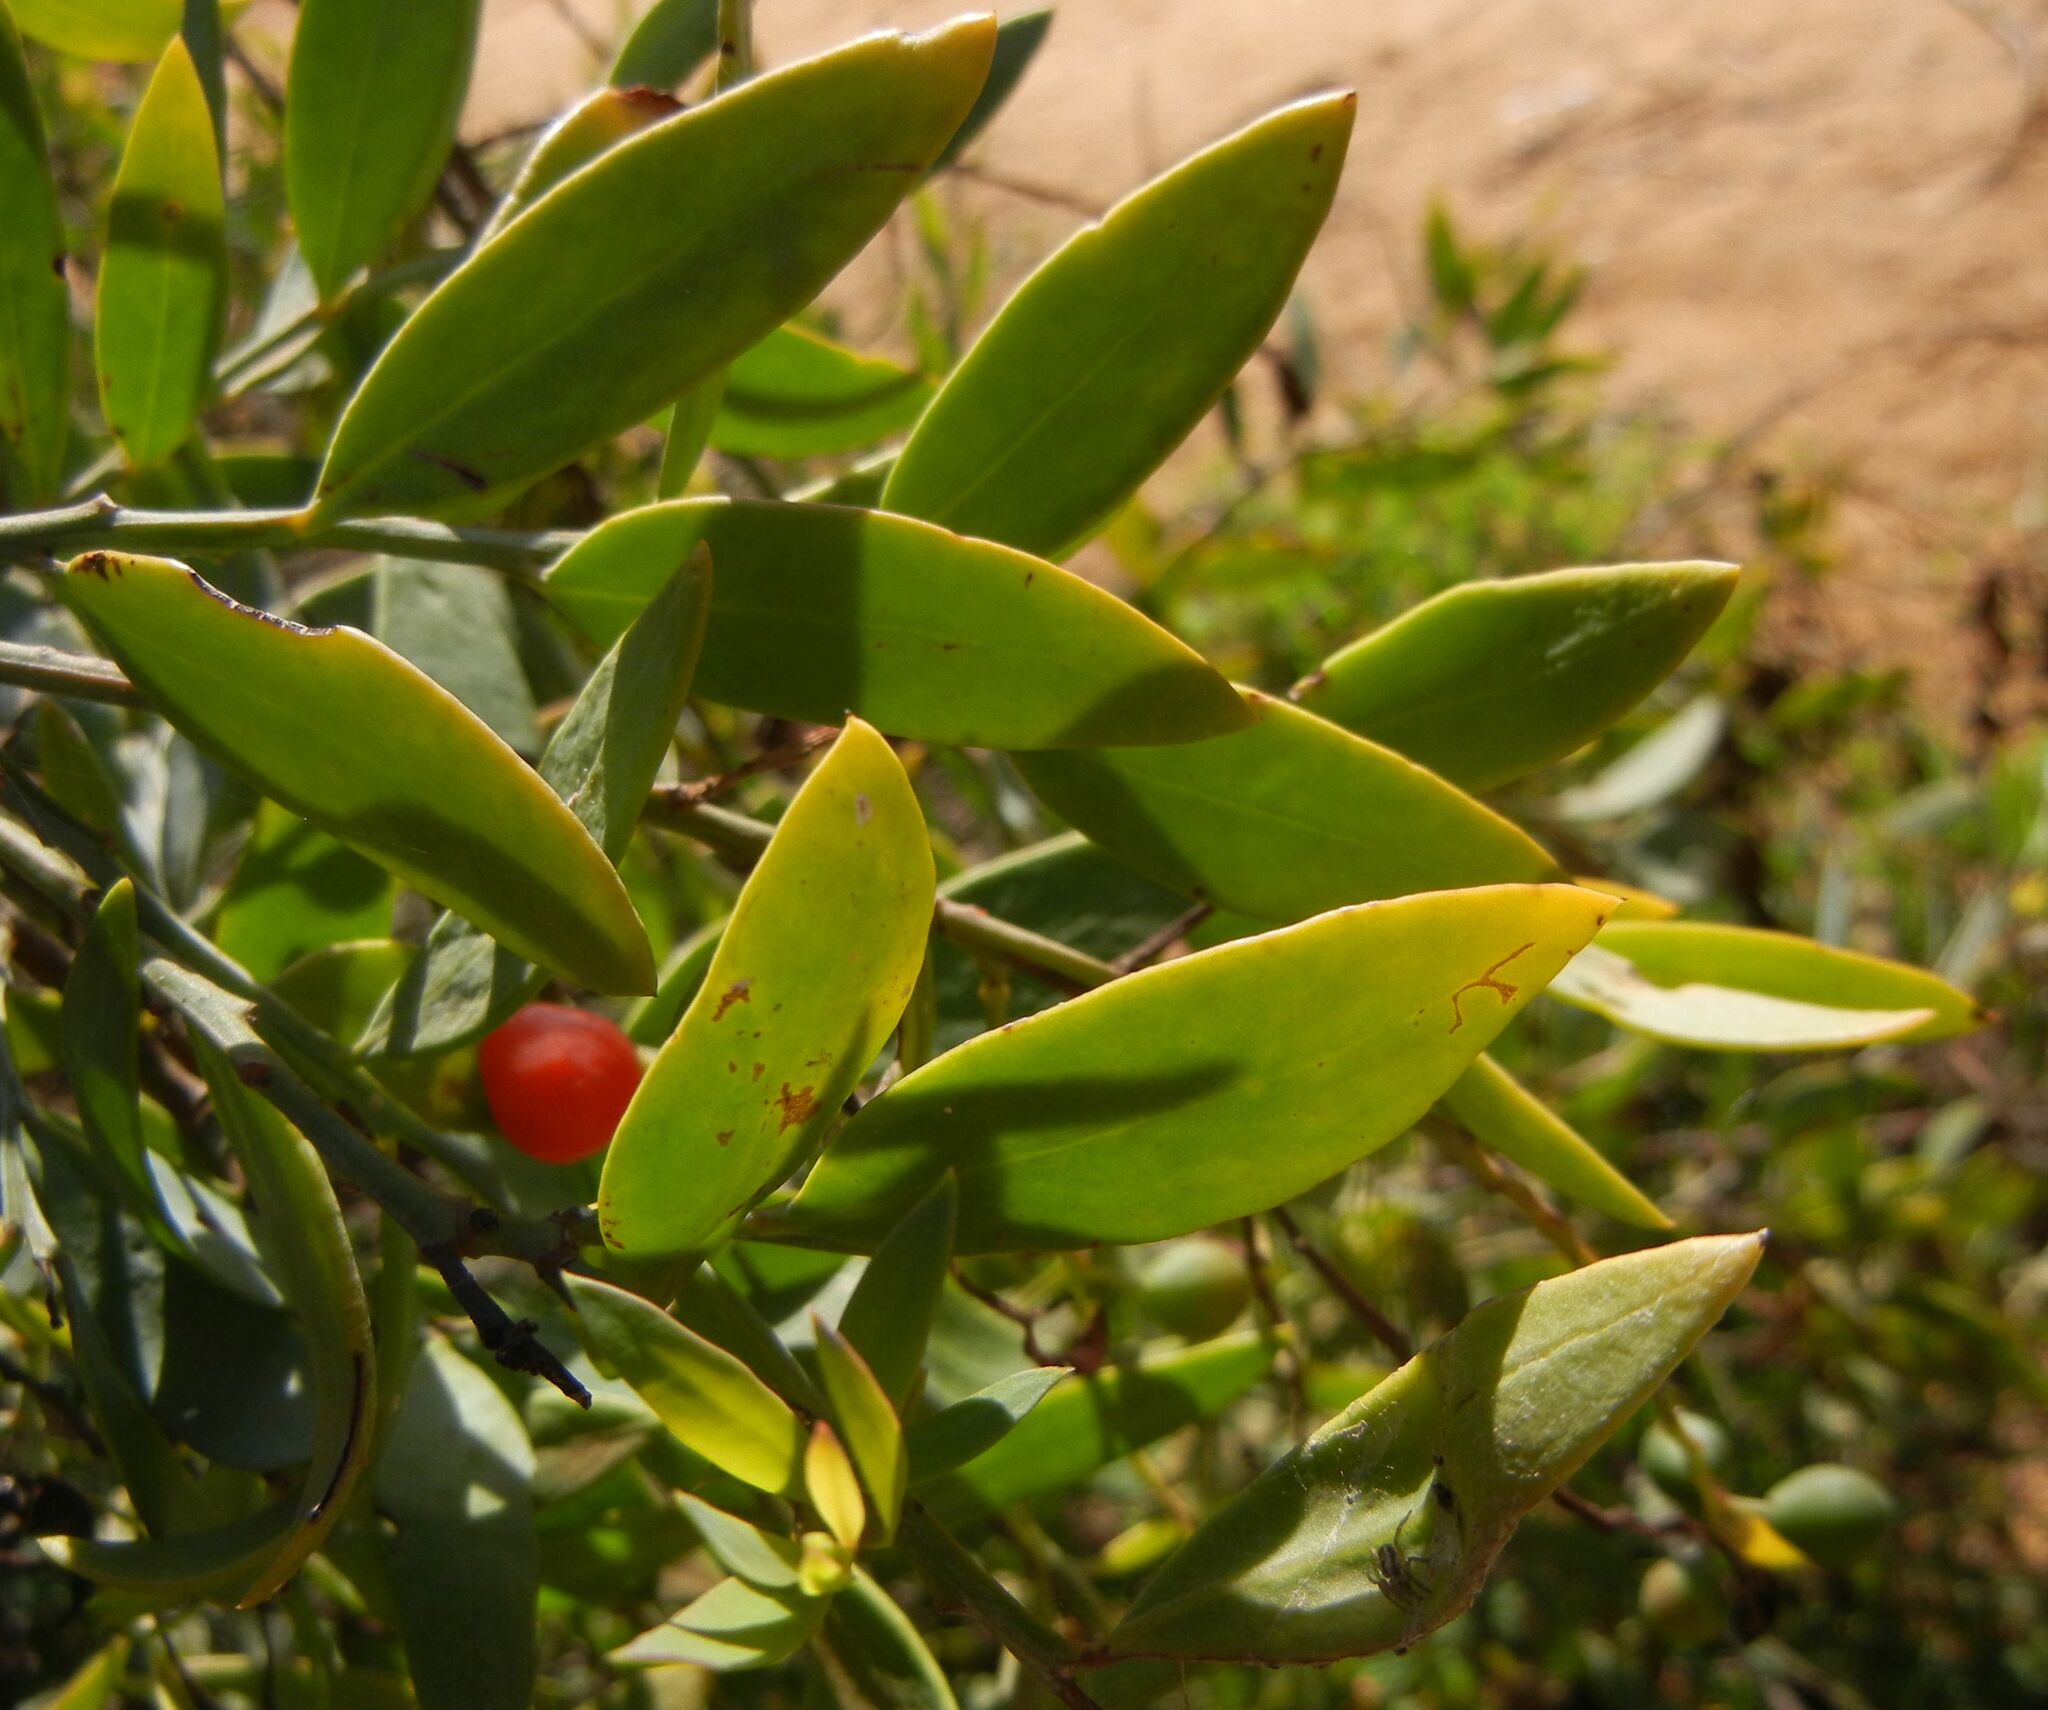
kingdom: Plantae
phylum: Tracheophyta
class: Magnoliopsida
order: Santalales
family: Santalaceae
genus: Osyris
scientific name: Osyris lanceolata
